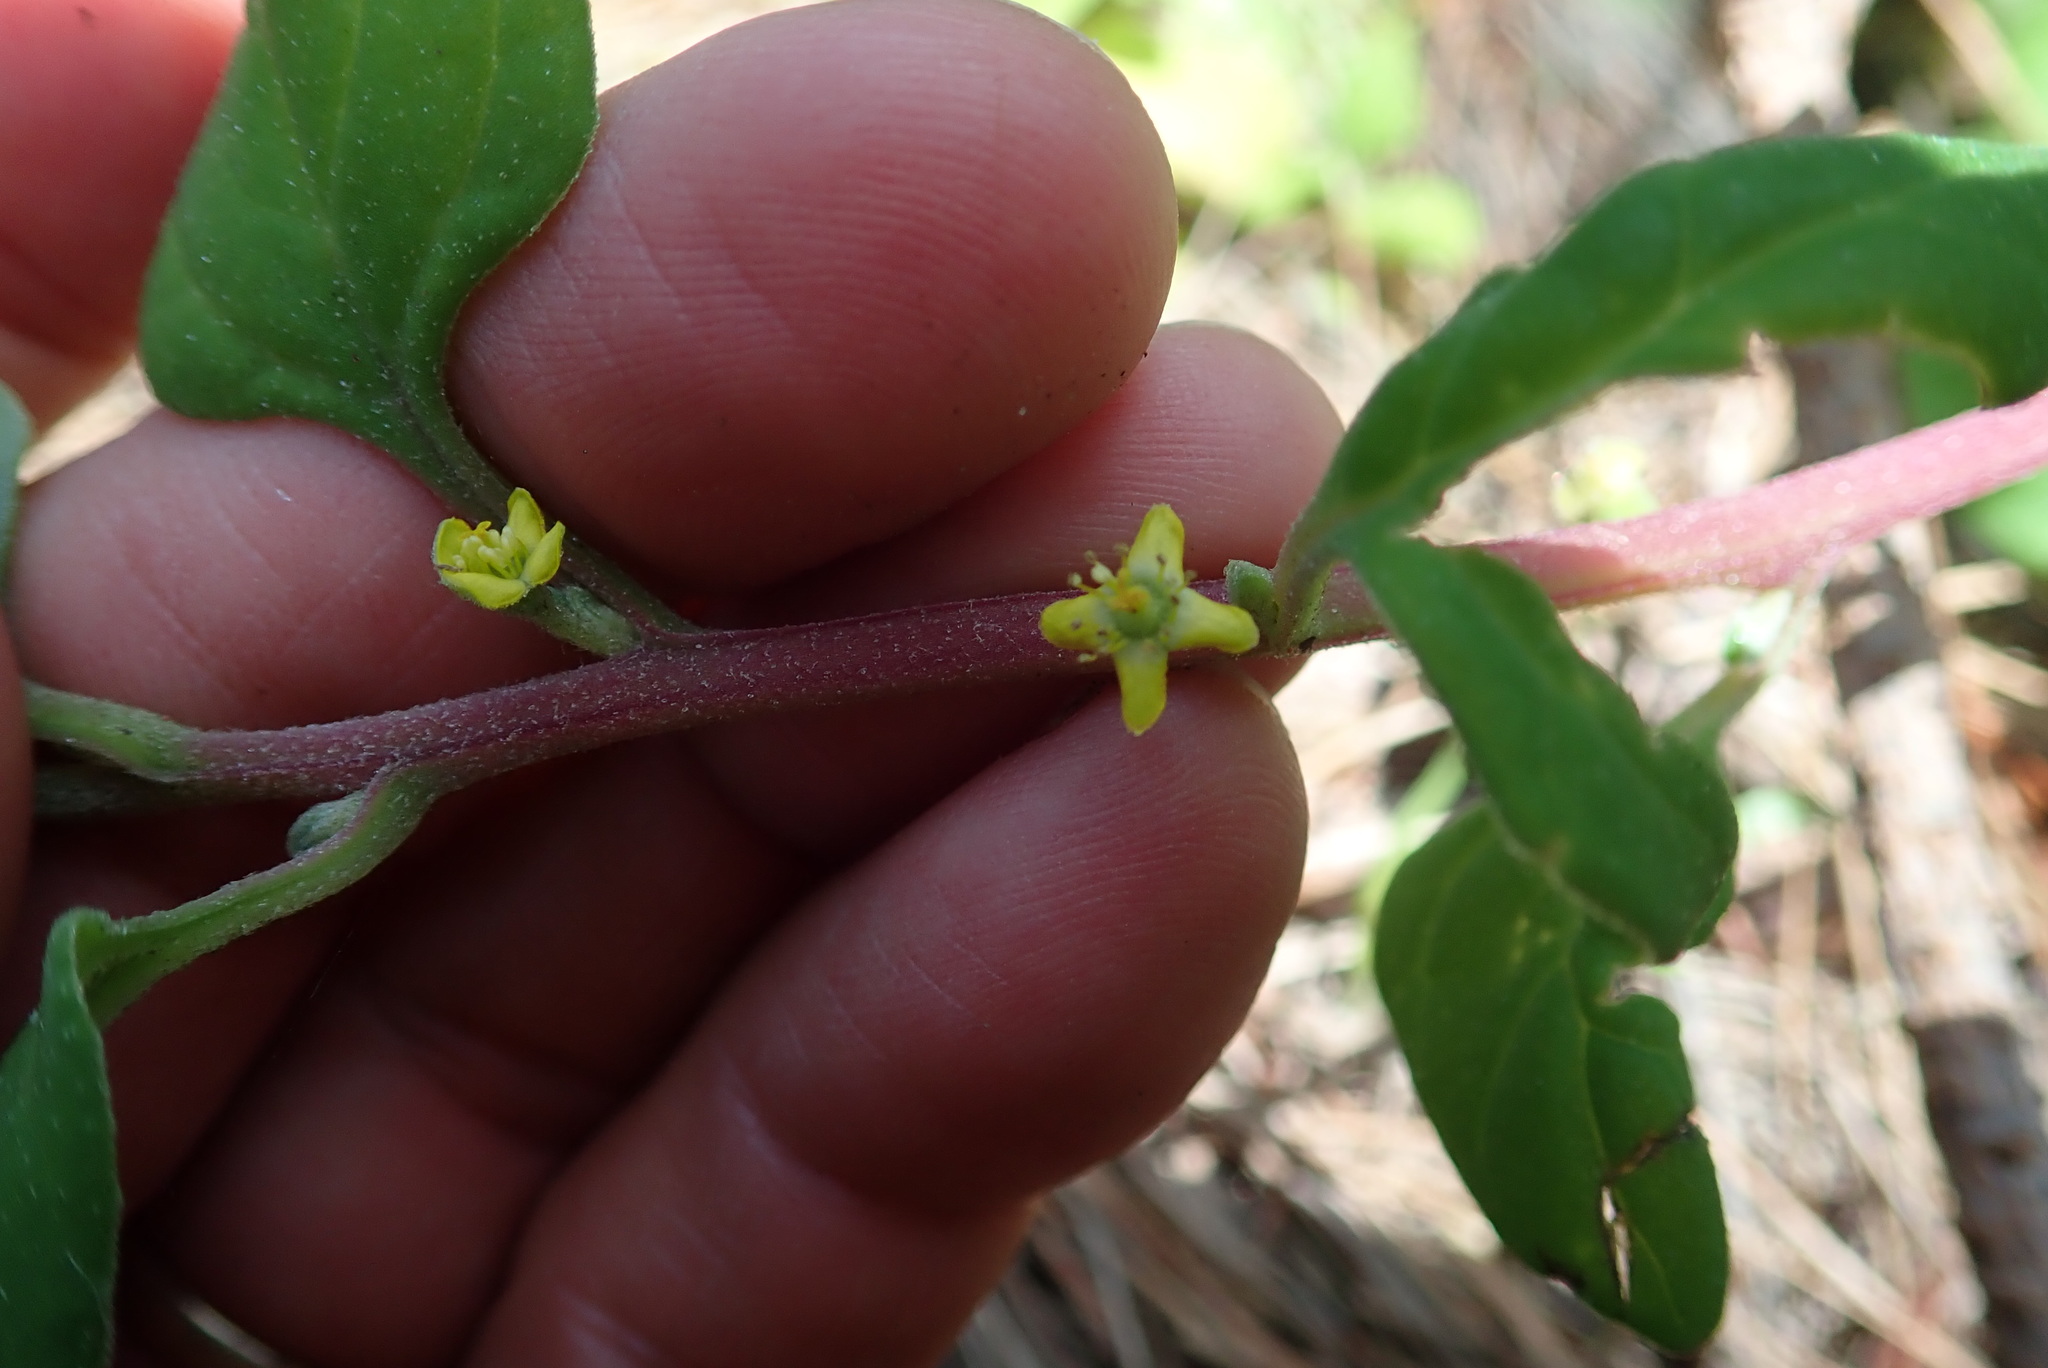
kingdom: Plantae
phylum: Tracheophyta
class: Magnoliopsida
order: Caryophyllales
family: Aizoaceae
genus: Tetragonia
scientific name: Tetragonia implexicoma
